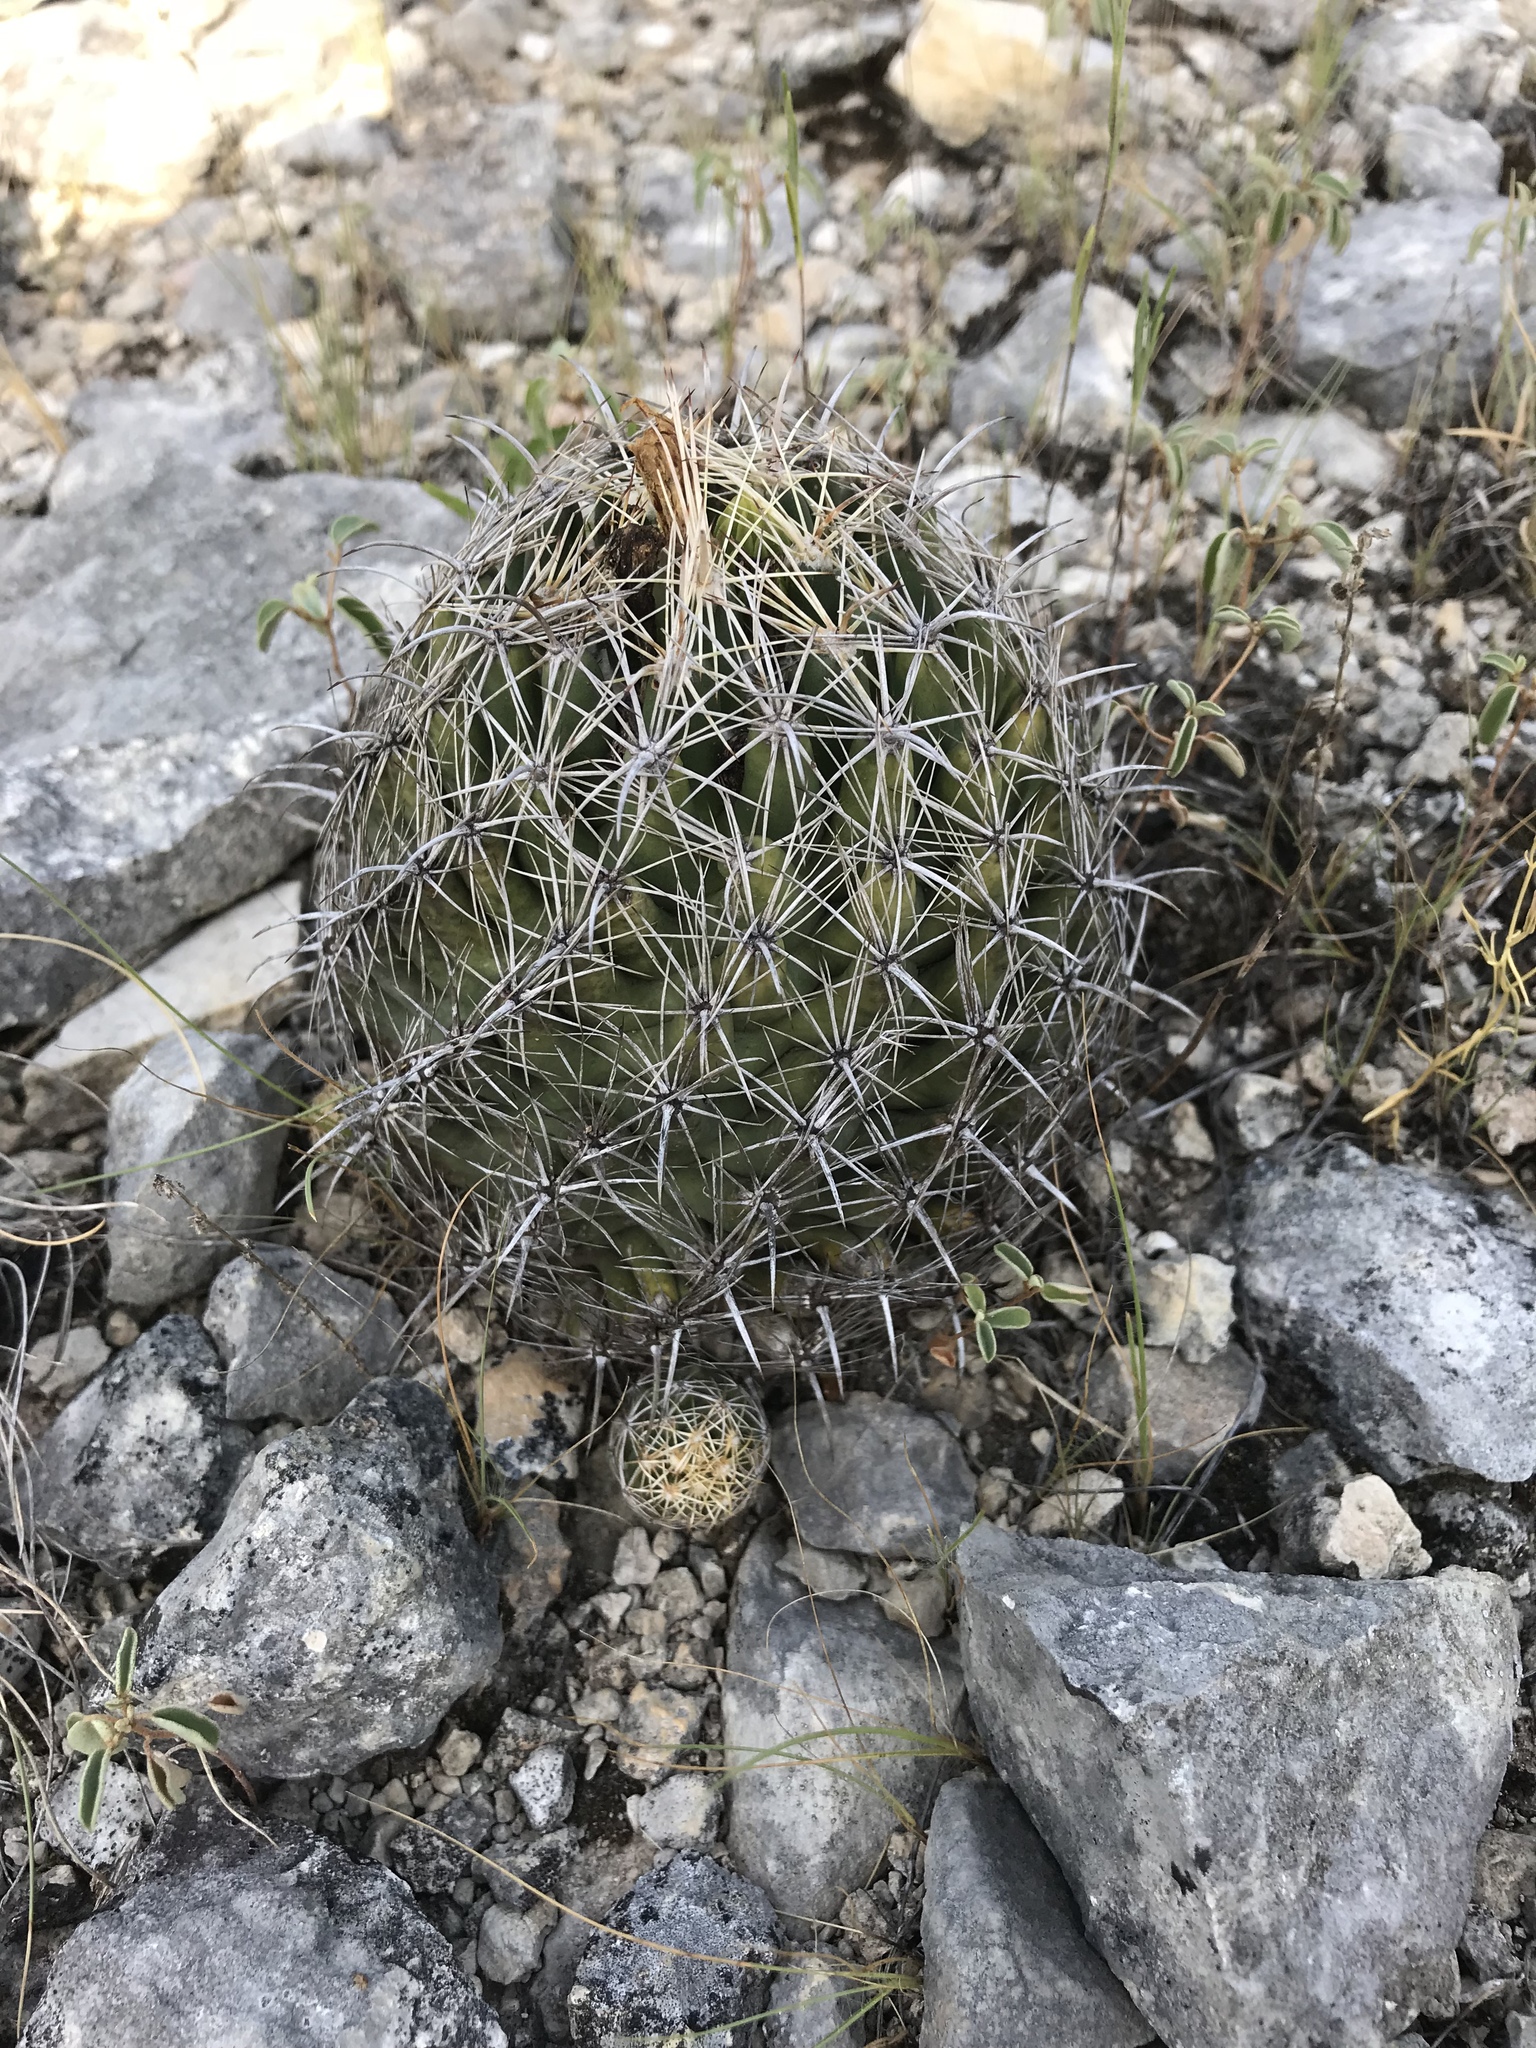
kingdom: Plantae
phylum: Tracheophyta
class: Magnoliopsida
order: Caryophyllales
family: Cactaceae
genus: Coryphantha
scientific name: Coryphantha sulcata
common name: Finger cactus
